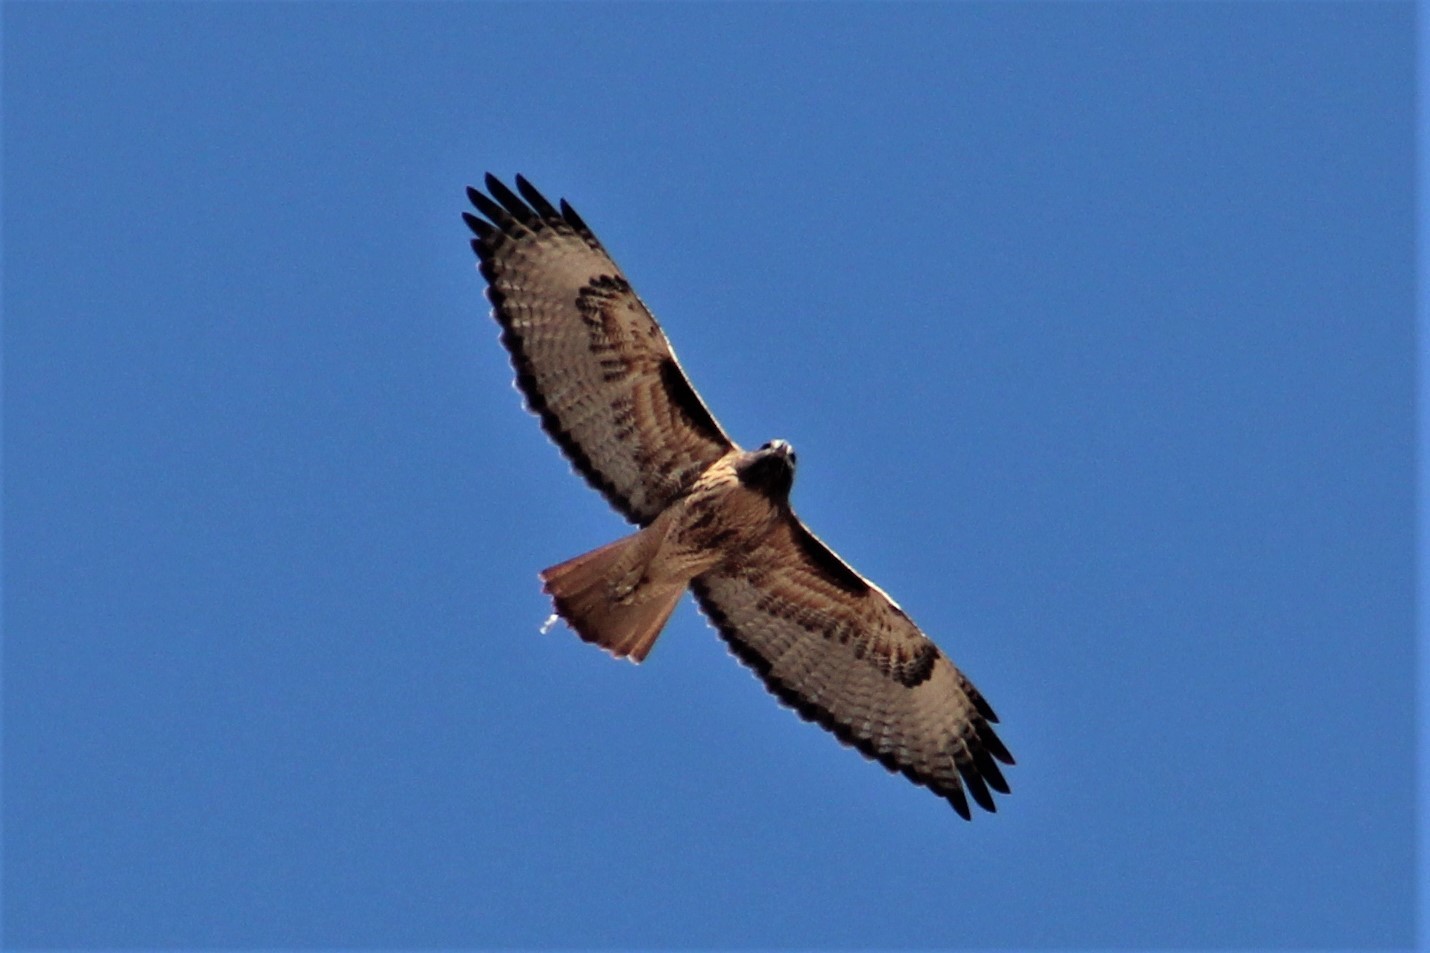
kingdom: Animalia
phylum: Chordata
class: Aves
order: Accipitriformes
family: Accipitridae
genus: Buteo
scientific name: Buteo jamaicensis
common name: Red-tailed hawk
